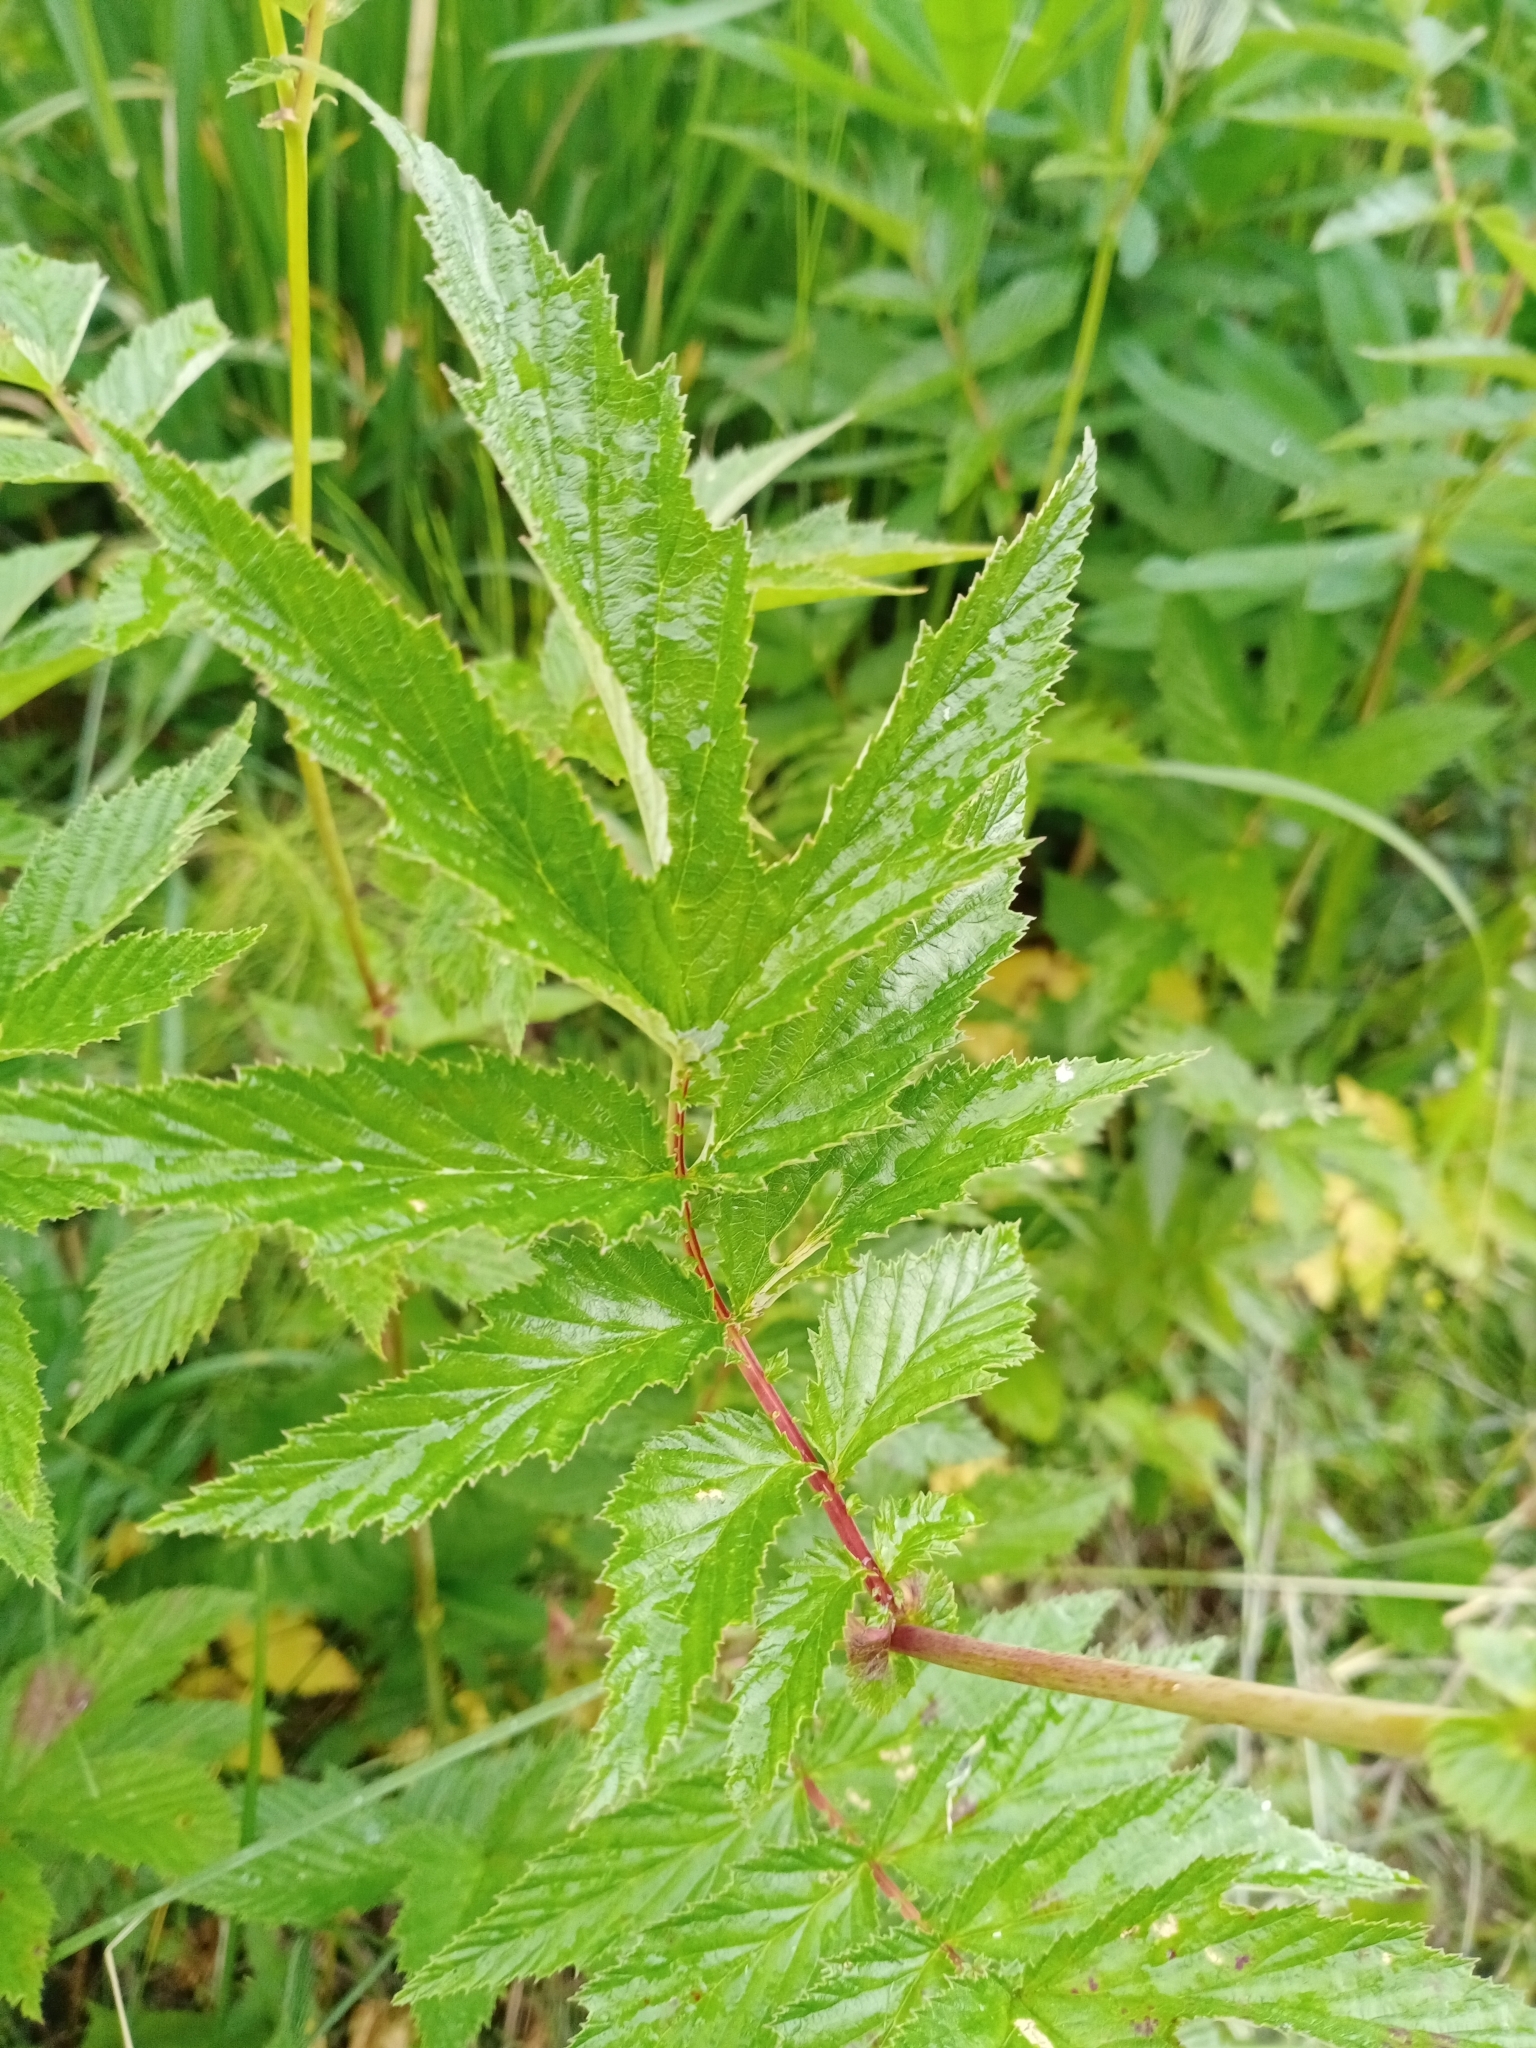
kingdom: Plantae
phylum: Tracheophyta
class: Magnoliopsida
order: Rosales
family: Rosaceae
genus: Filipendula
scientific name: Filipendula ulmaria
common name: Meadowsweet
